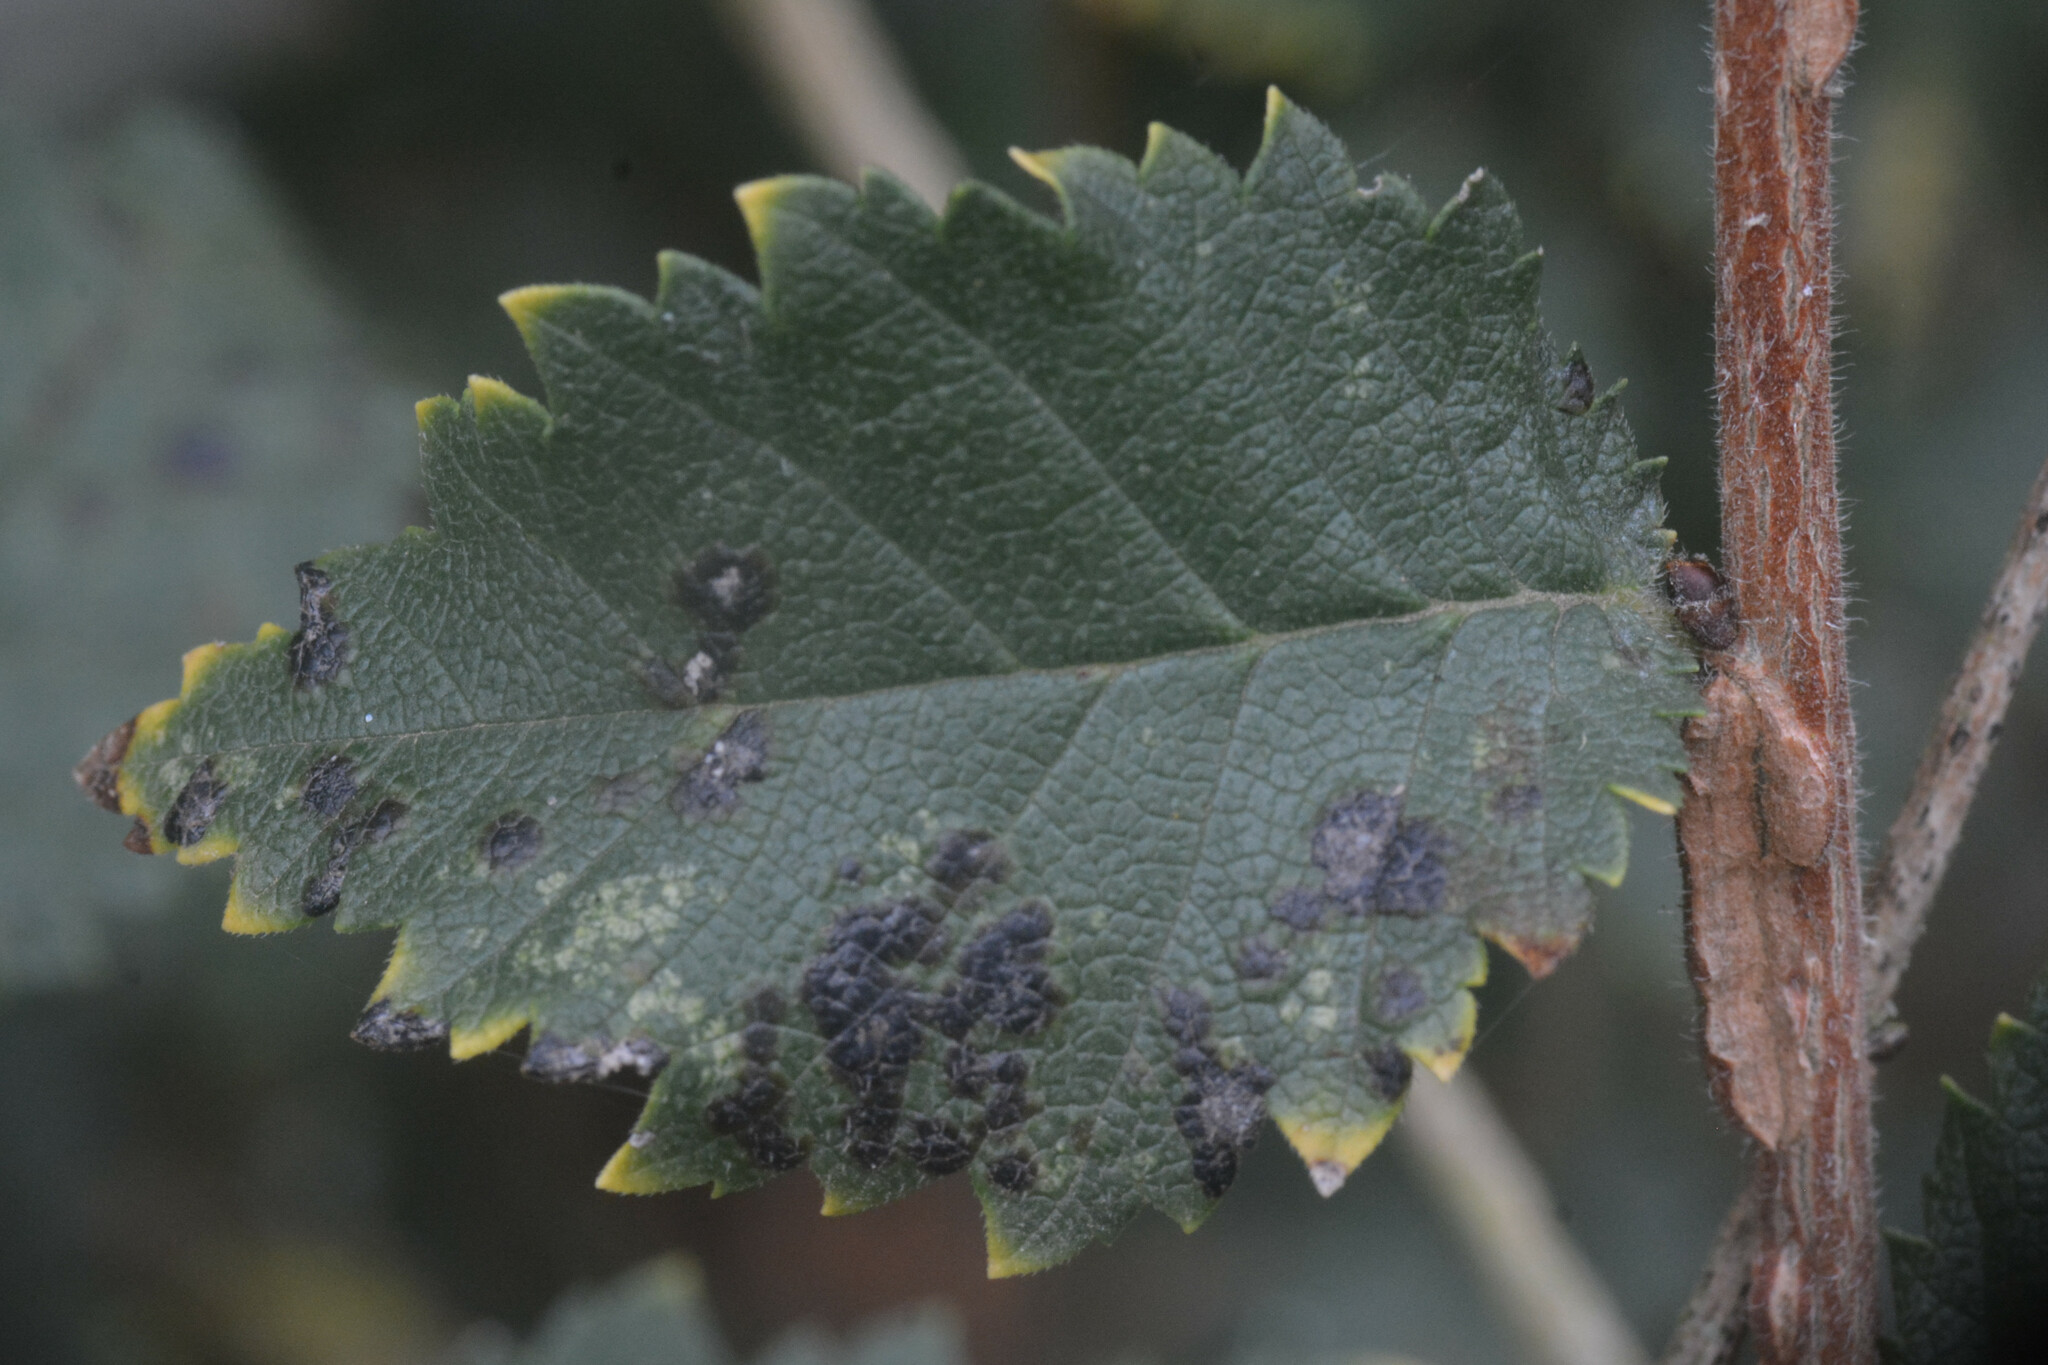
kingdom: Fungi
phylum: Ascomycota
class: Dothideomycetes
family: Polystomellaceae
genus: Dothidella
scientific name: Dothidella ulmi
